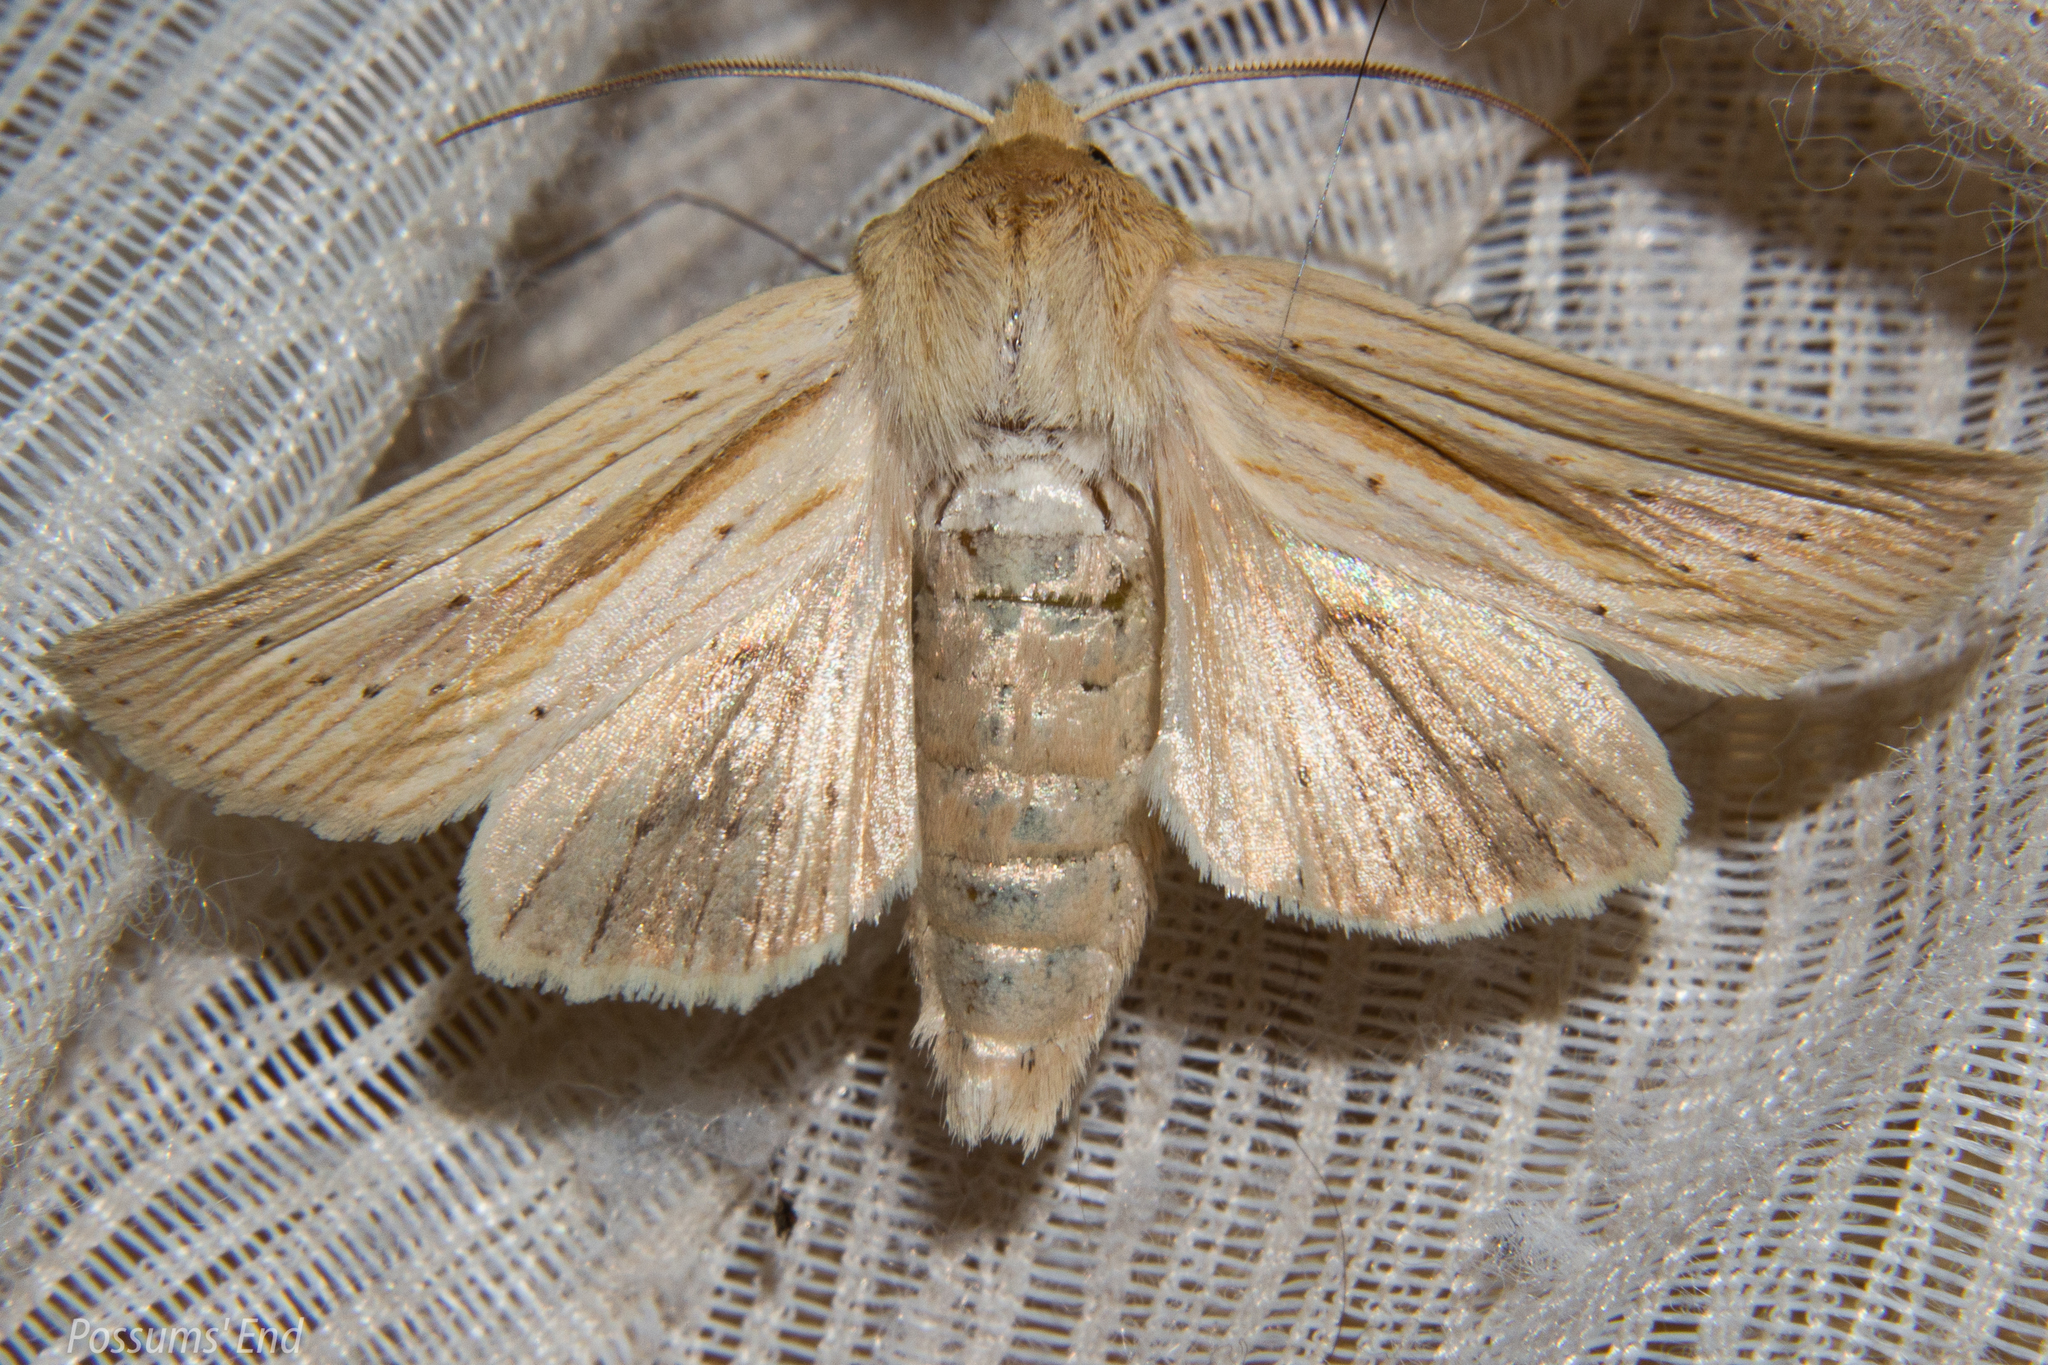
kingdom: Animalia
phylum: Arthropoda
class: Insecta
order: Lepidoptera
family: Noctuidae
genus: Ichneutica
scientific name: Ichneutica semivittata
